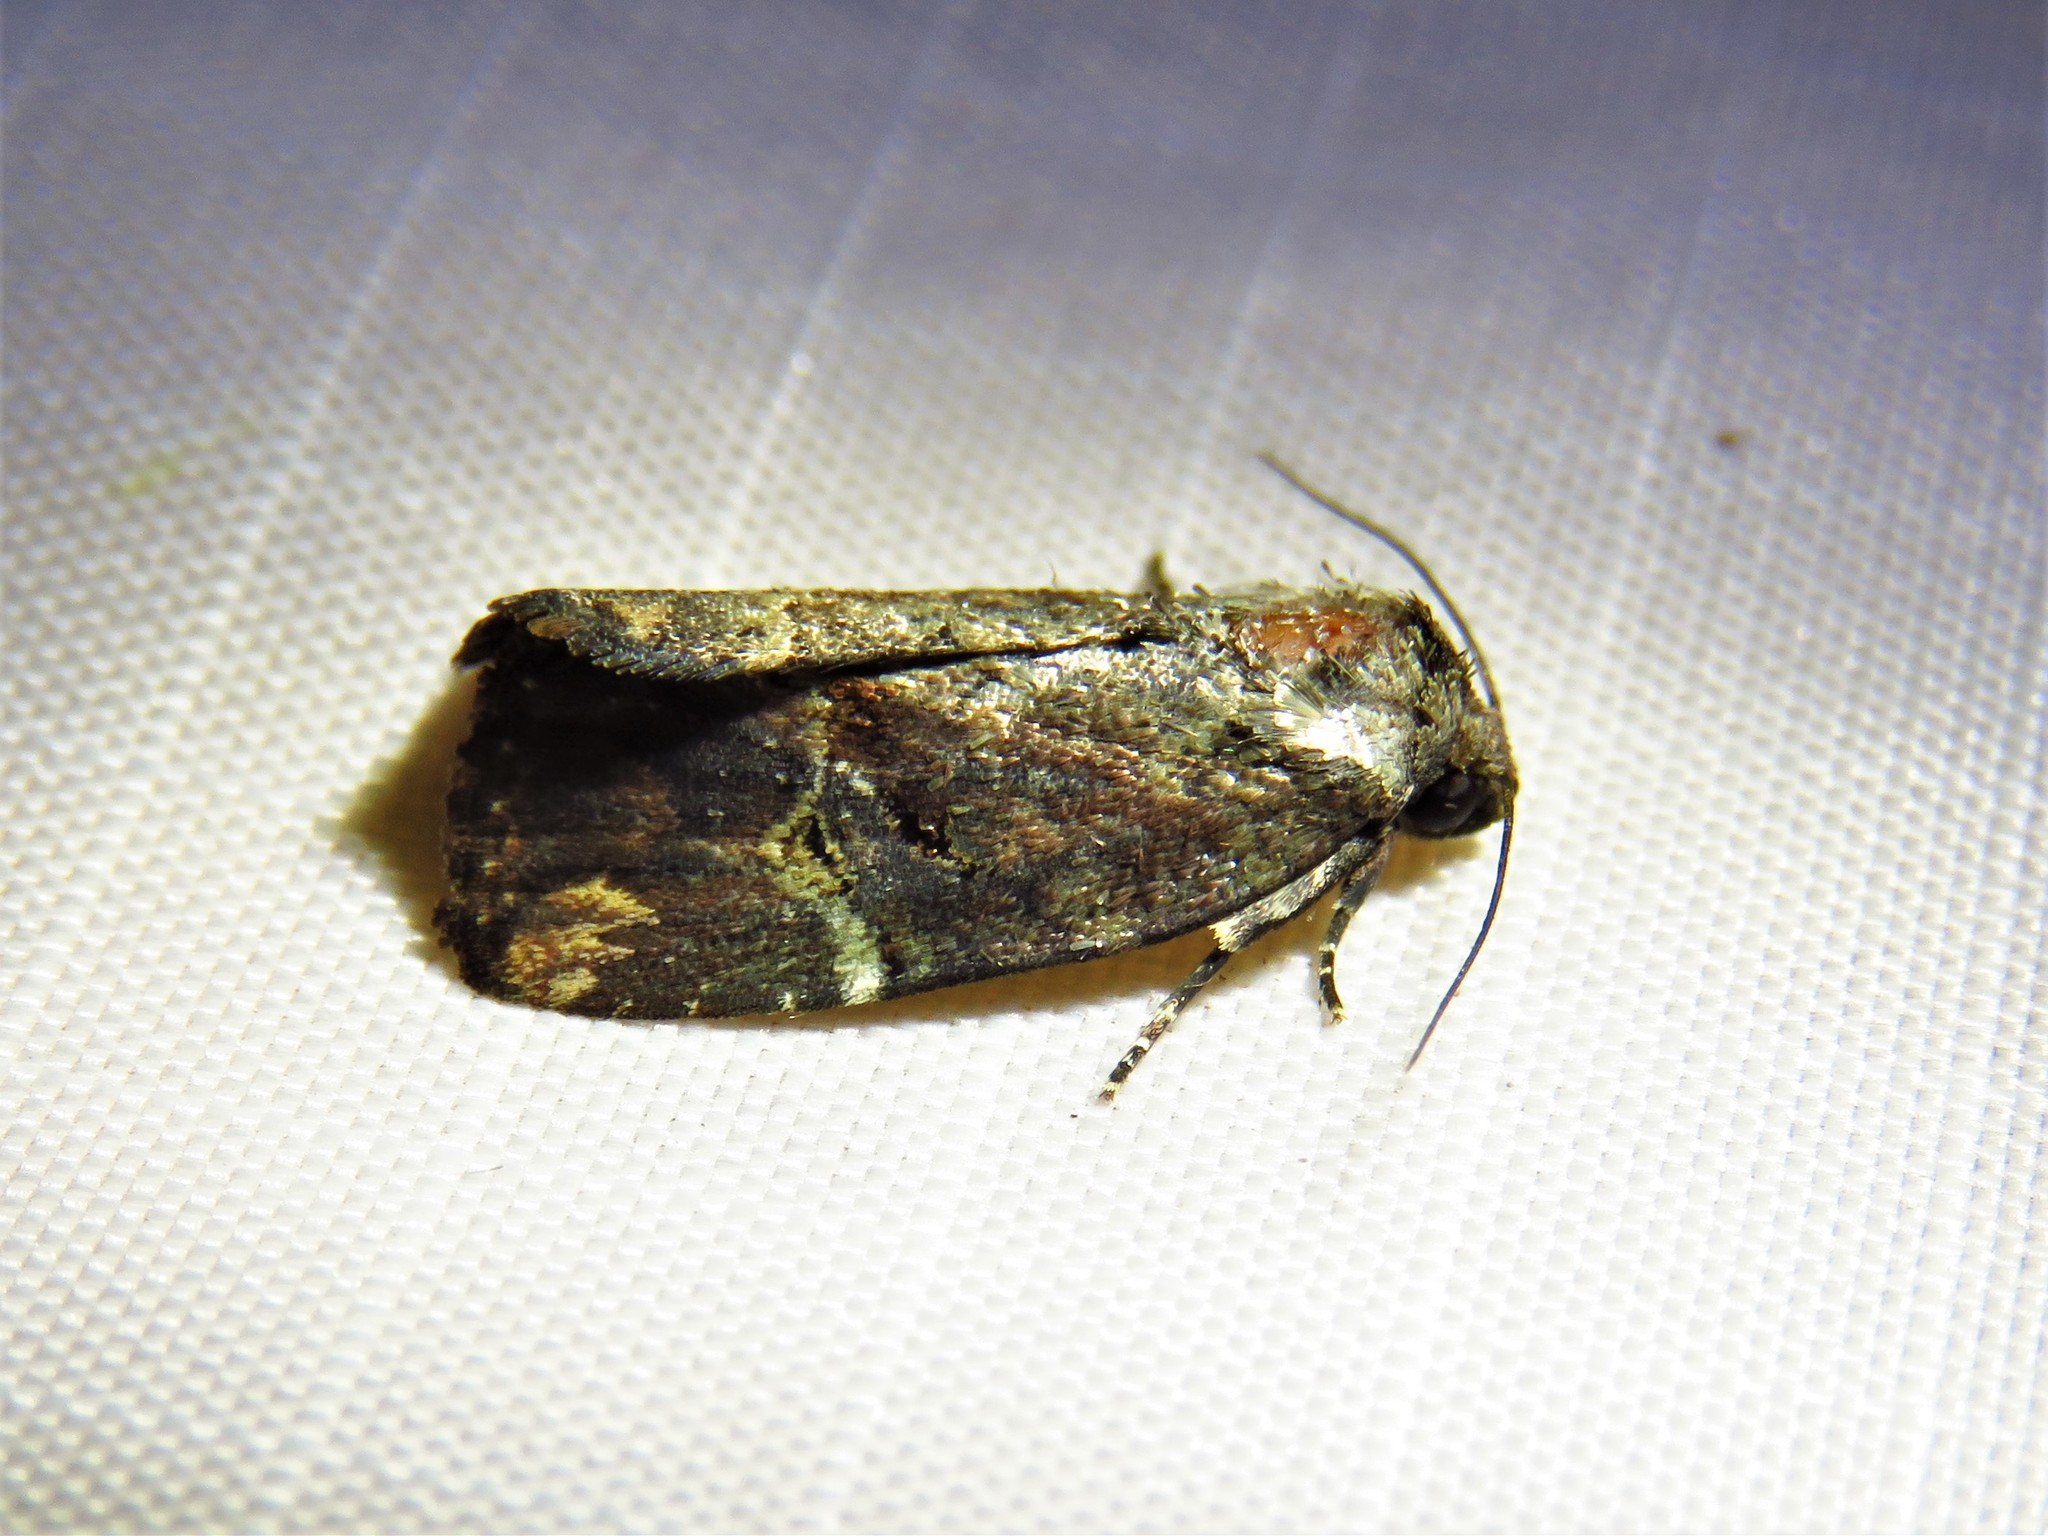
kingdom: Animalia
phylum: Arthropoda
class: Insecta
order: Lepidoptera
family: Noctuidae
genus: Elaphria
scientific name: Elaphria chalcedonia
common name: Chalcedony midget
